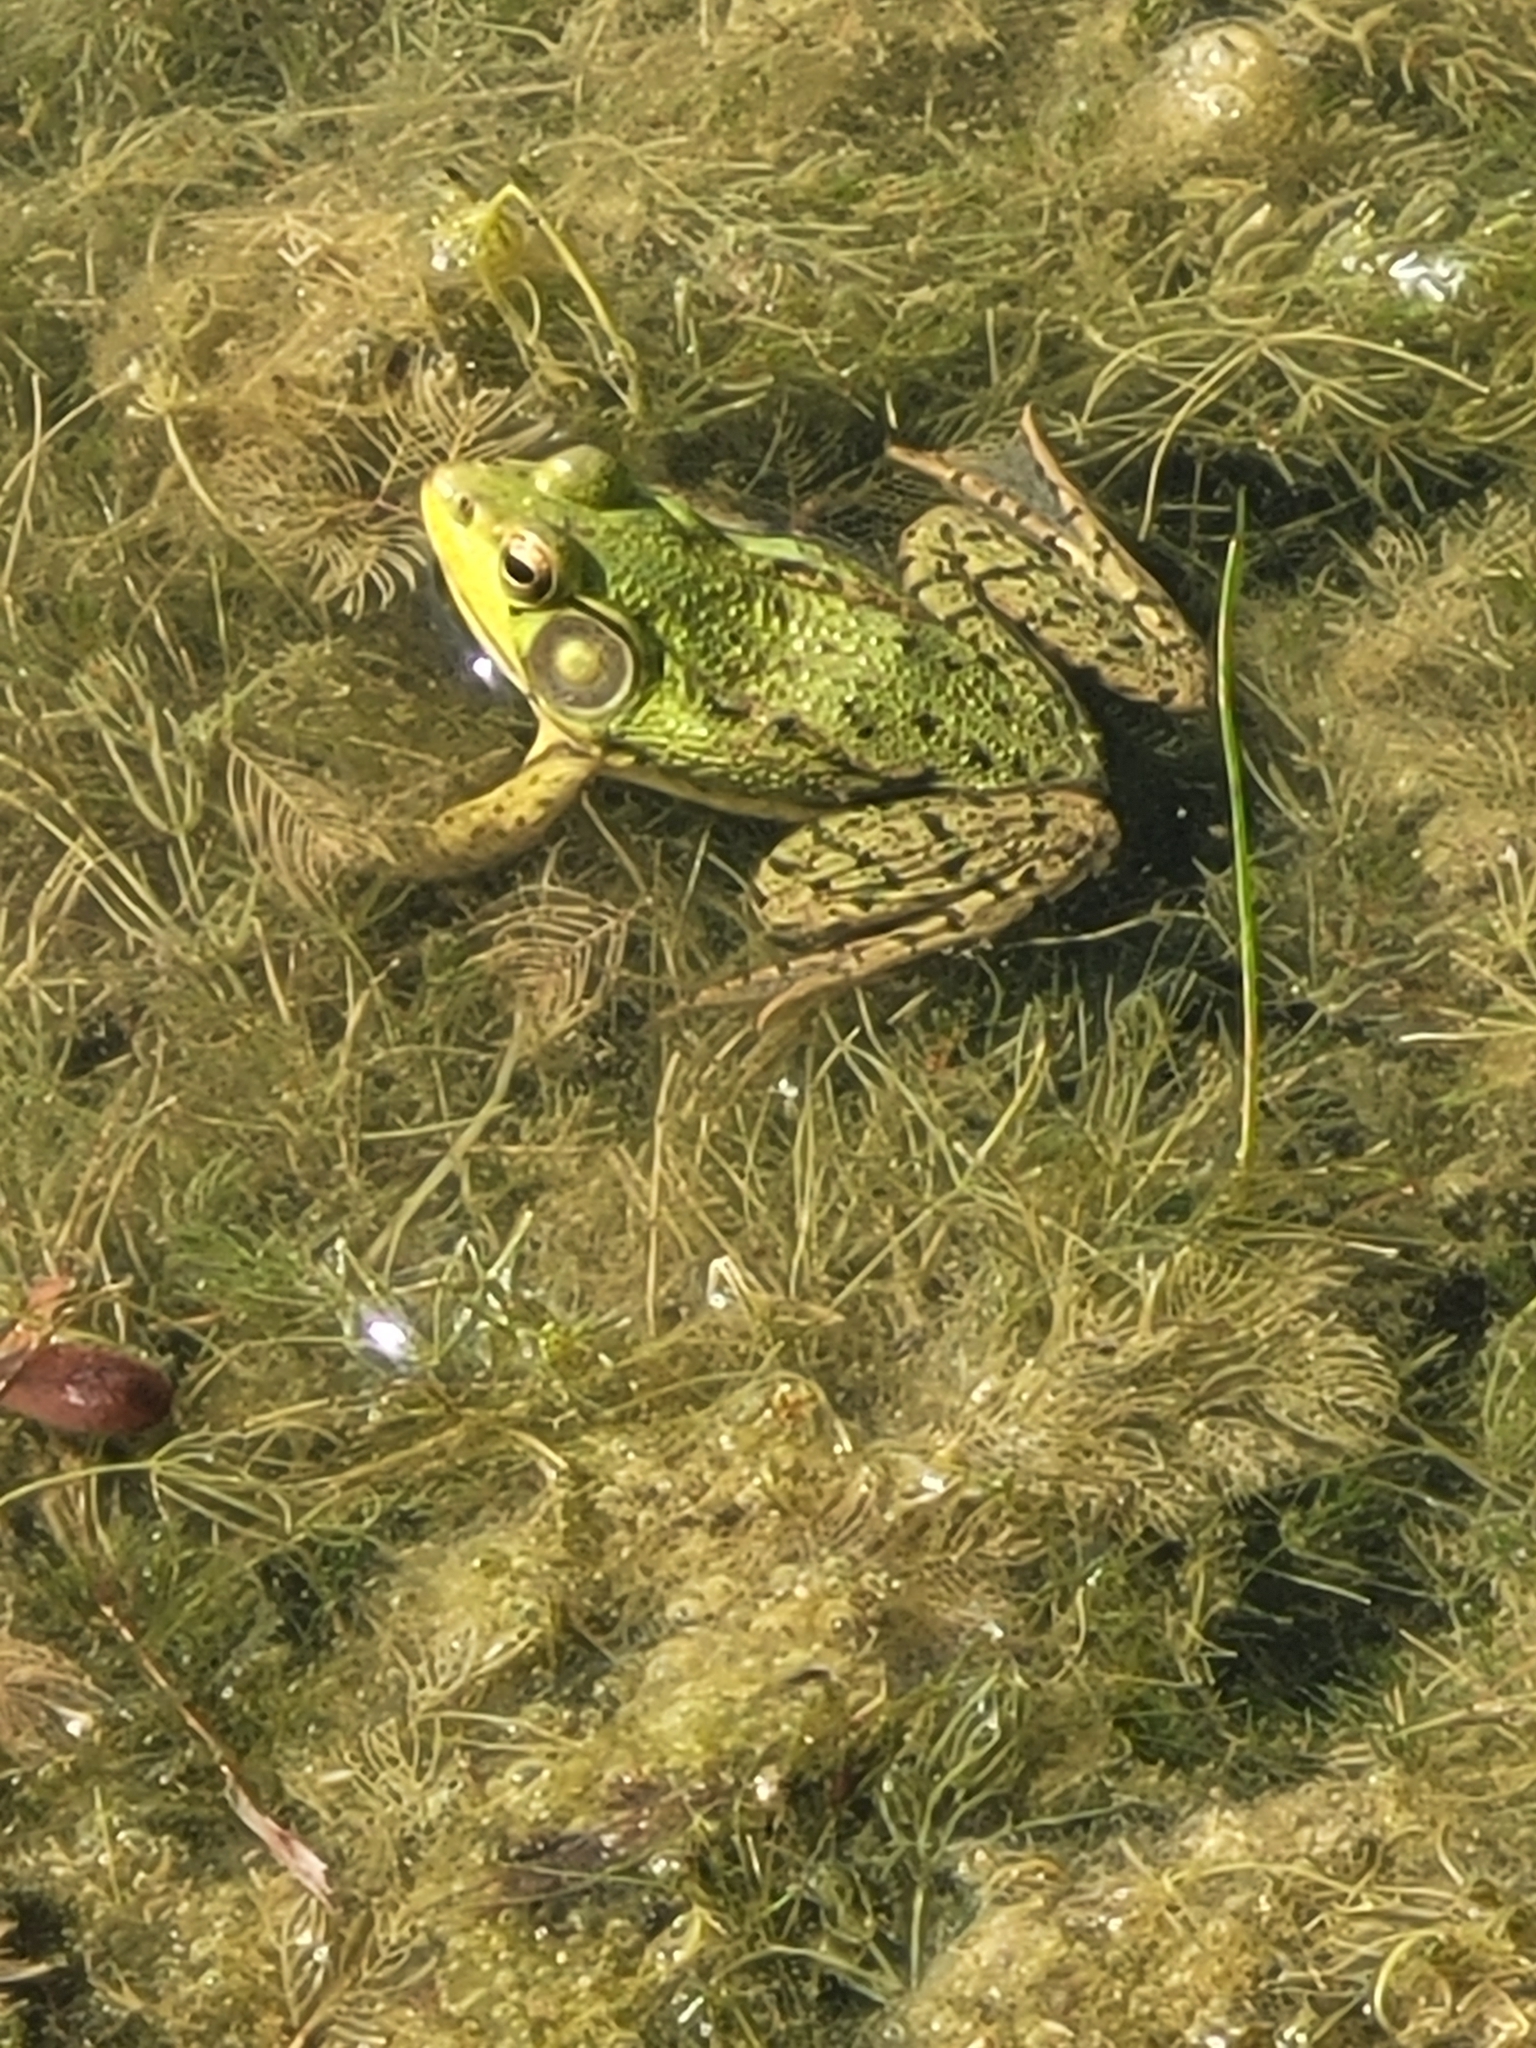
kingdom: Animalia
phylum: Chordata
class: Amphibia
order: Anura
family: Ranidae
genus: Lithobates
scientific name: Lithobates clamitans
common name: Green frog
